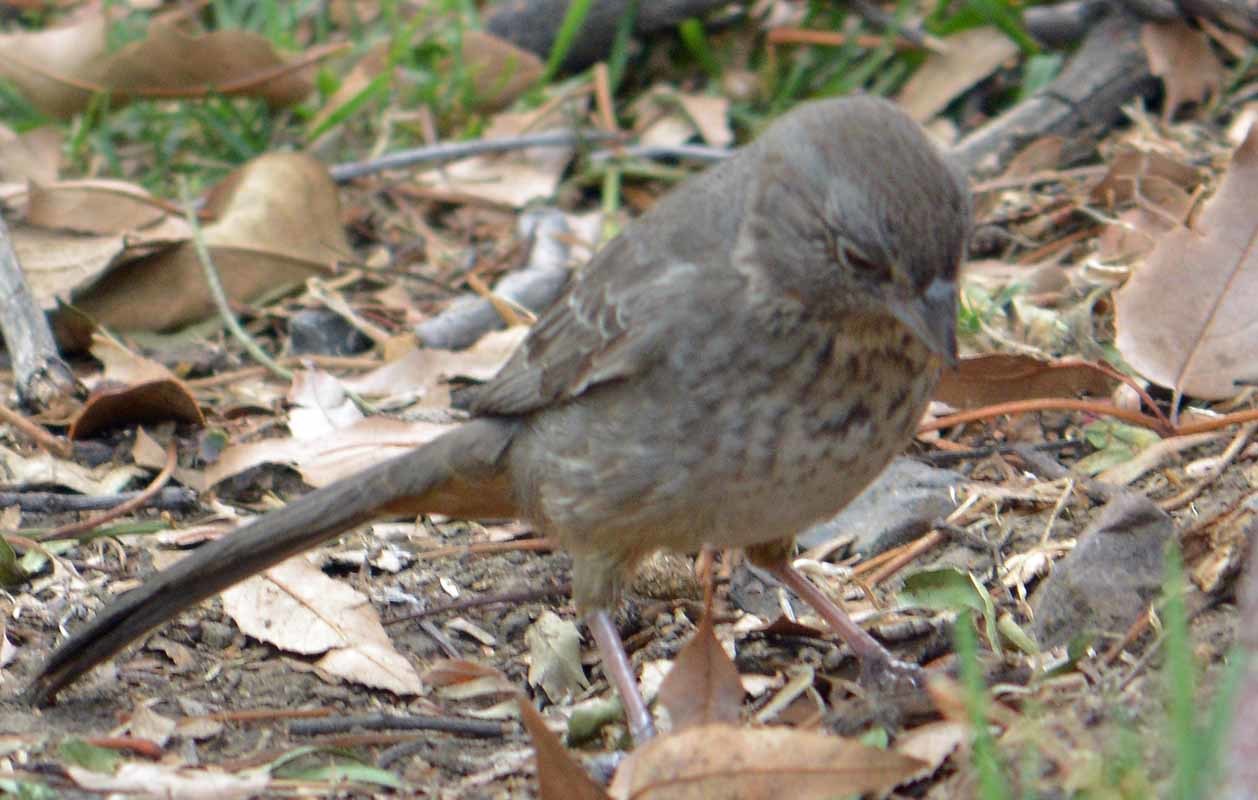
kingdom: Animalia
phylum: Chordata
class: Aves
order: Passeriformes
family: Passerellidae
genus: Melozone
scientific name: Melozone fusca
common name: Canyon towhee
